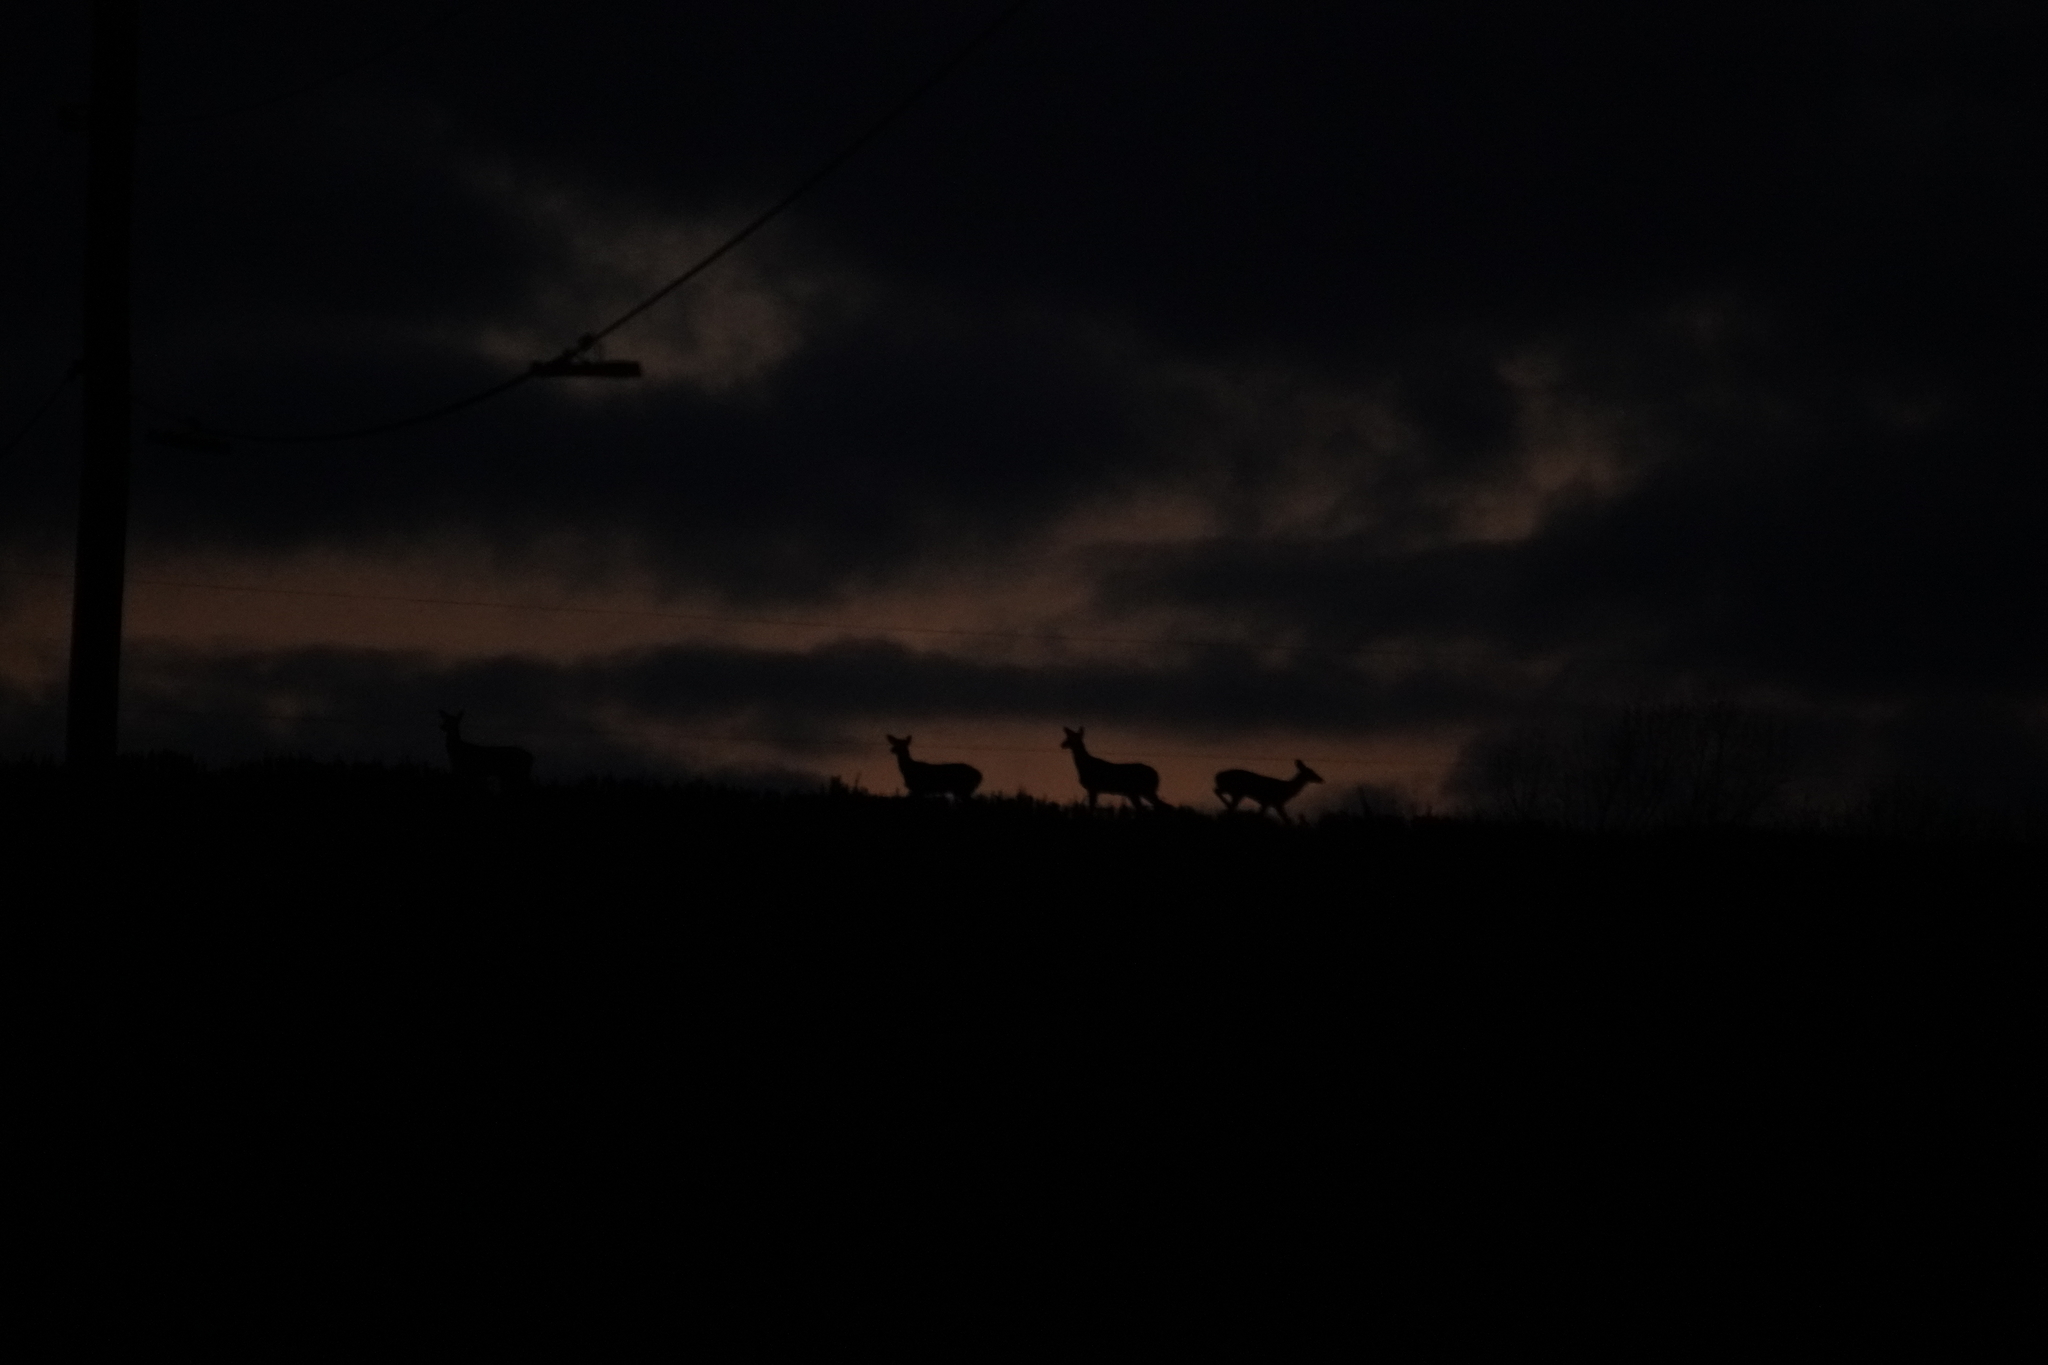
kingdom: Animalia
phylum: Chordata
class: Mammalia
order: Artiodactyla
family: Cervidae
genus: Odocoileus
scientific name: Odocoileus virginianus
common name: White-tailed deer
